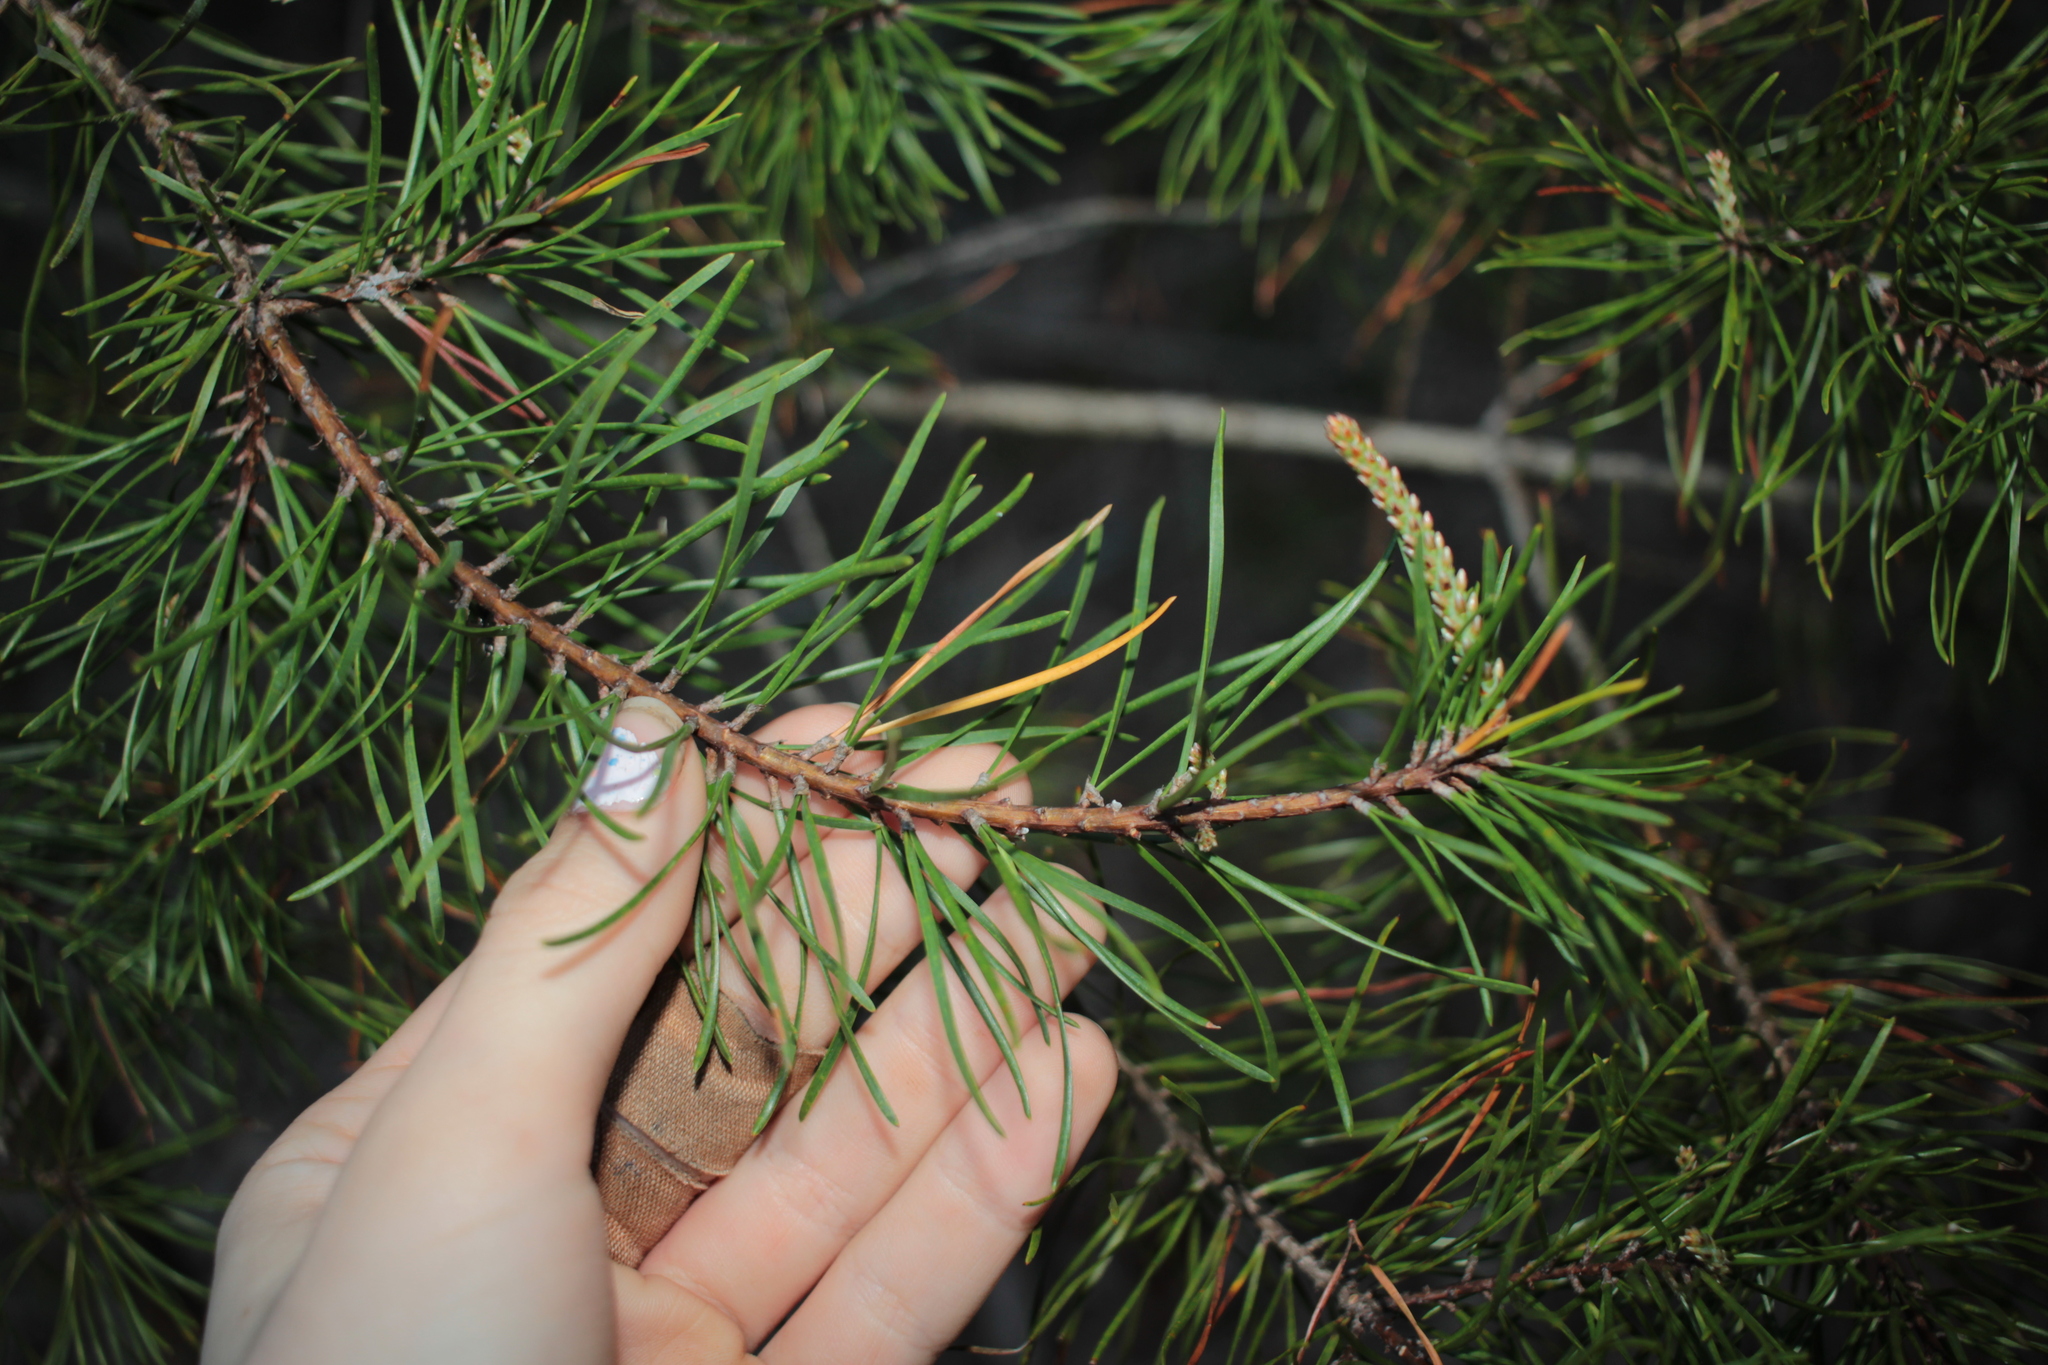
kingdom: Plantae
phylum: Tracheophyta
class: Pinopsida
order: Pinales
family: Pinaceae
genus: Pinus
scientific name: Pinus virginiana
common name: Scrub pine
